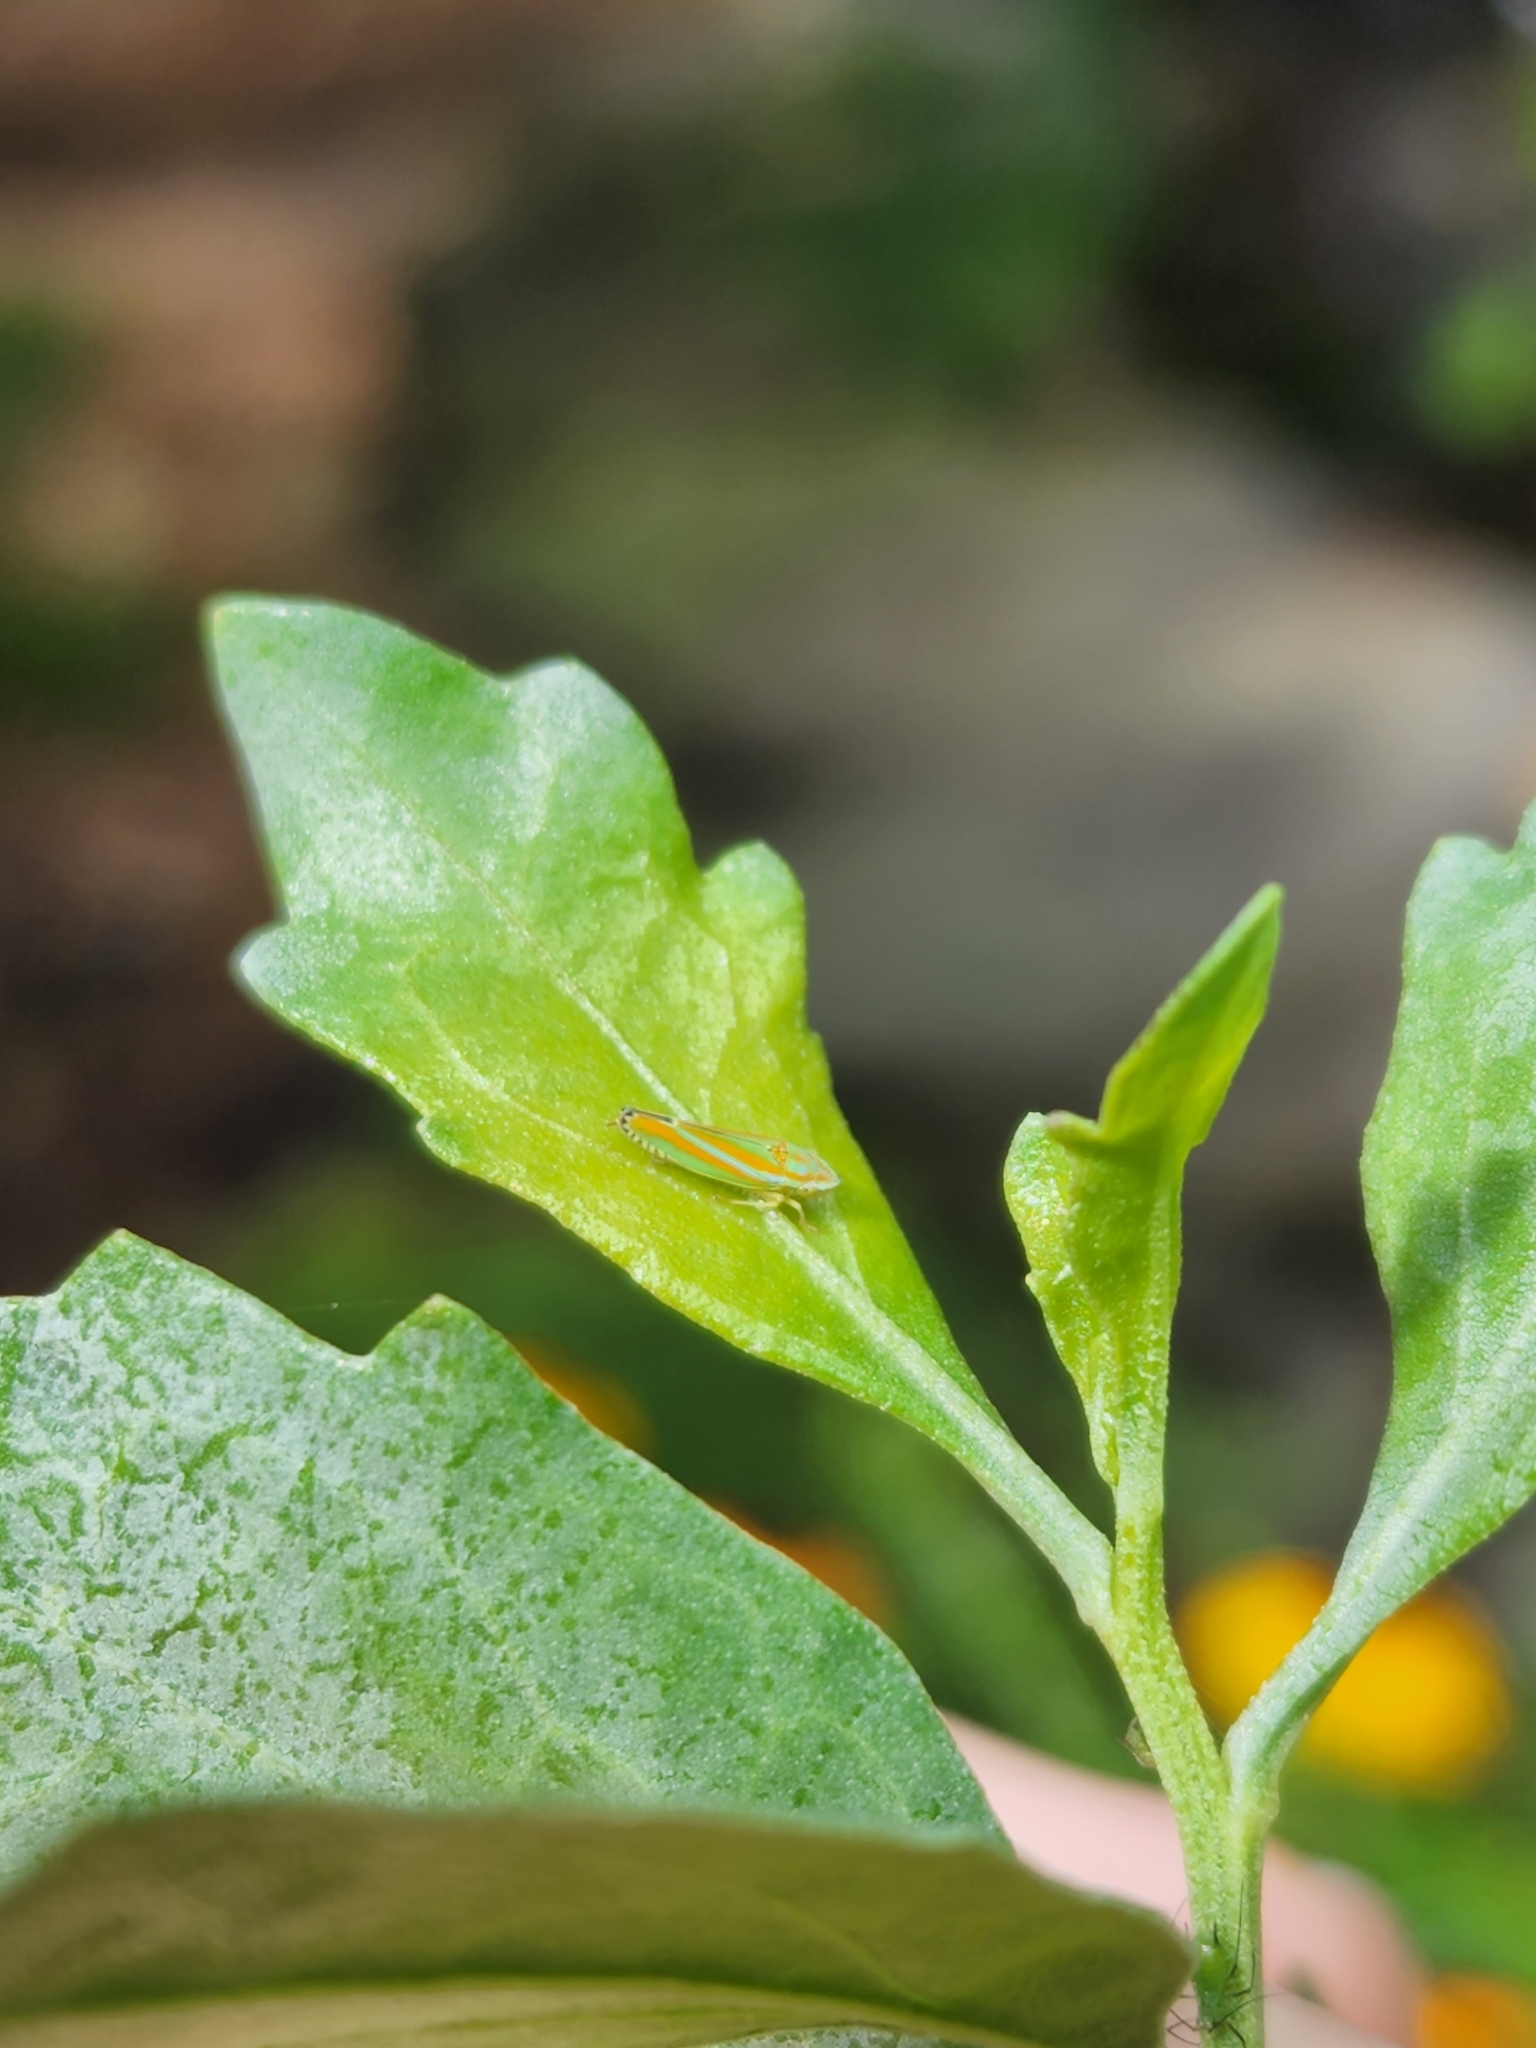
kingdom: Animalia
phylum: Arthropoda
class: Insecta
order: Hemiptera
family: Cicadellidae
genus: Graphocephala
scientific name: Graphocephala versuta
